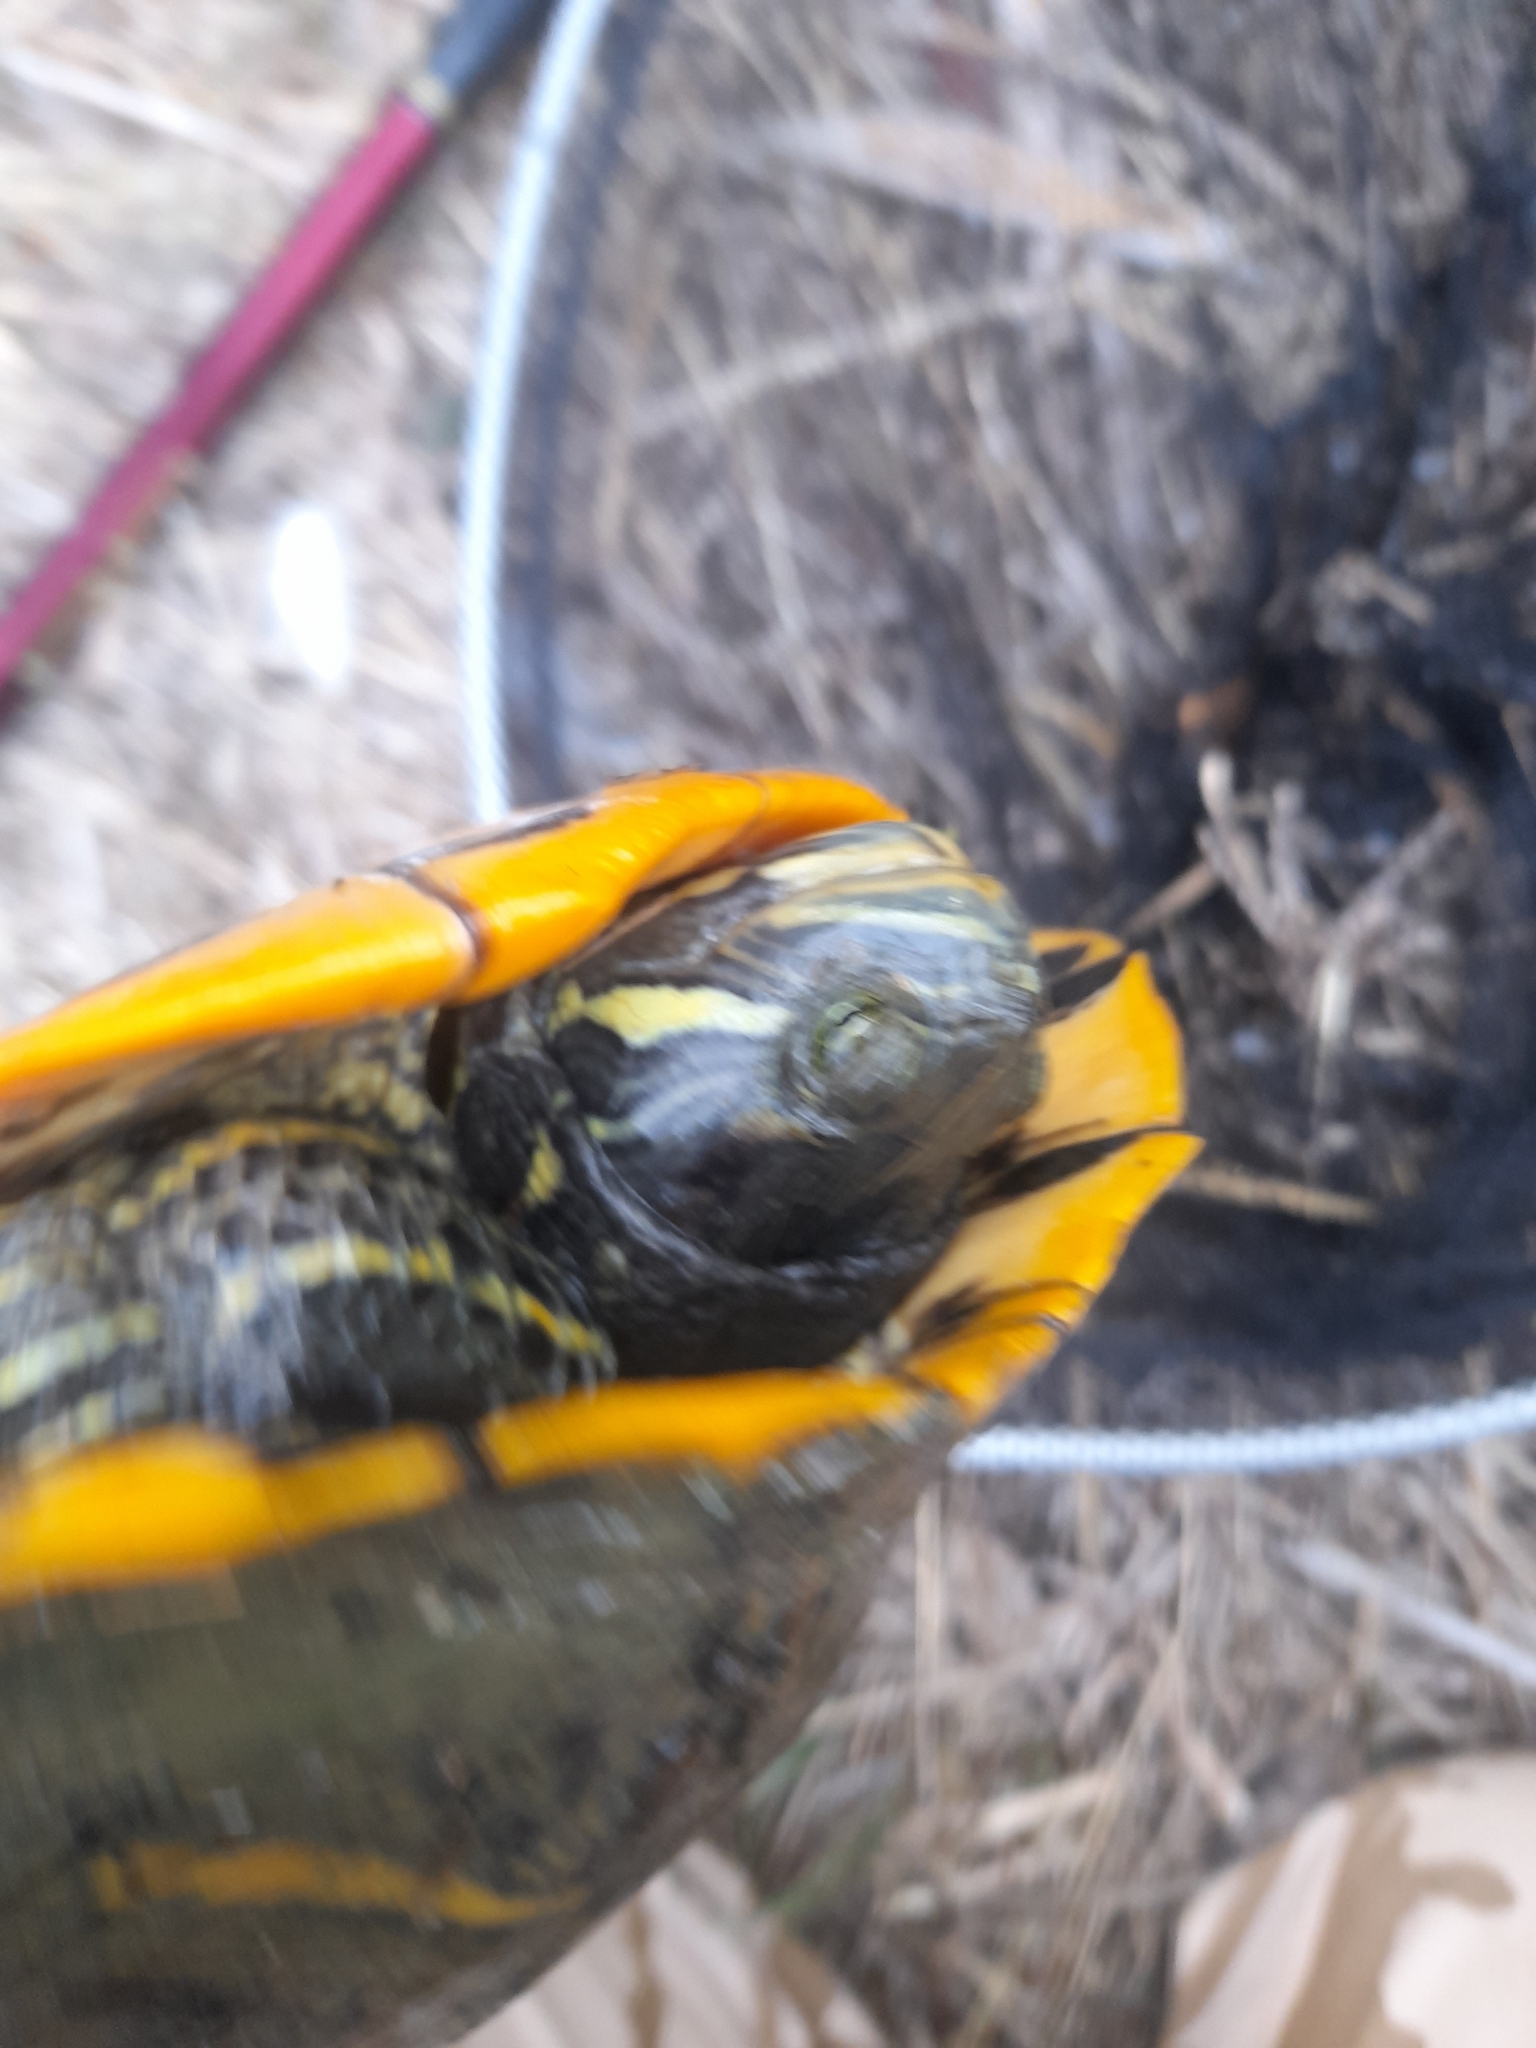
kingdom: Animalia
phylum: Chordata
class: Testudines
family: Emydidae
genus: Trachemys
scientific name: Trachemys scripta
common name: Slider
